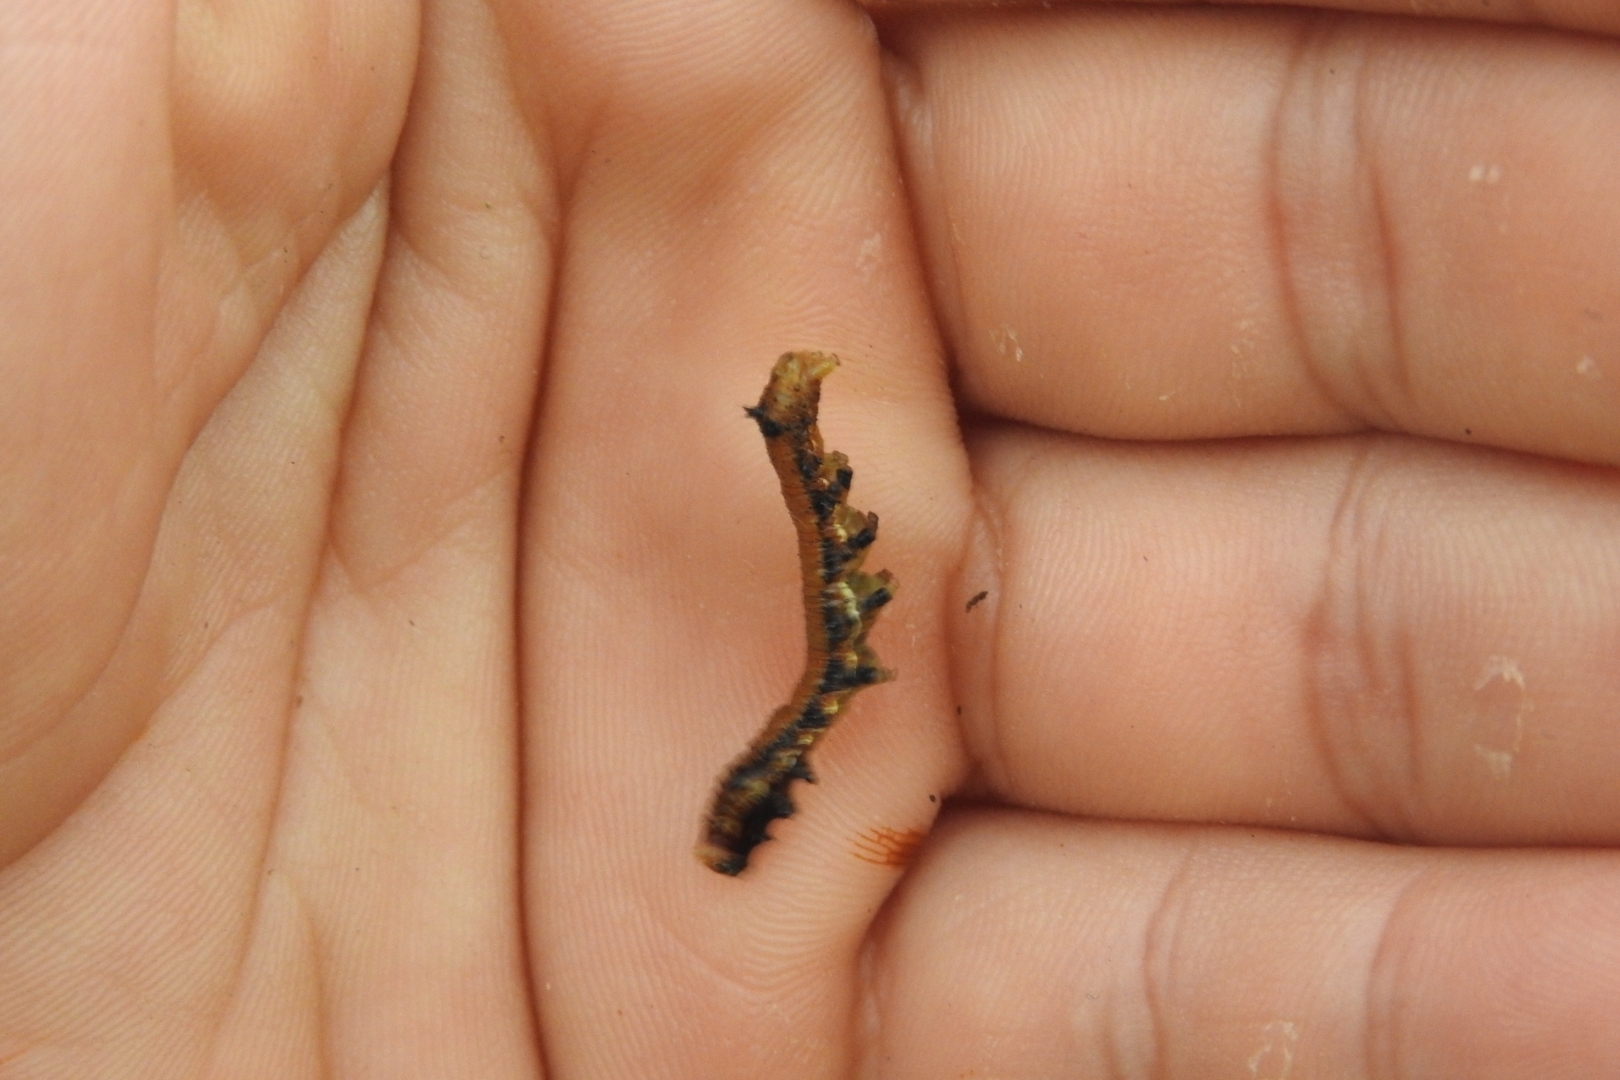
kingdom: Animalia
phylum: Arthropoda
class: Insecta
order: Lepidoptera
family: Erebidae
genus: Selenisa
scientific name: Selenisa sueroides
